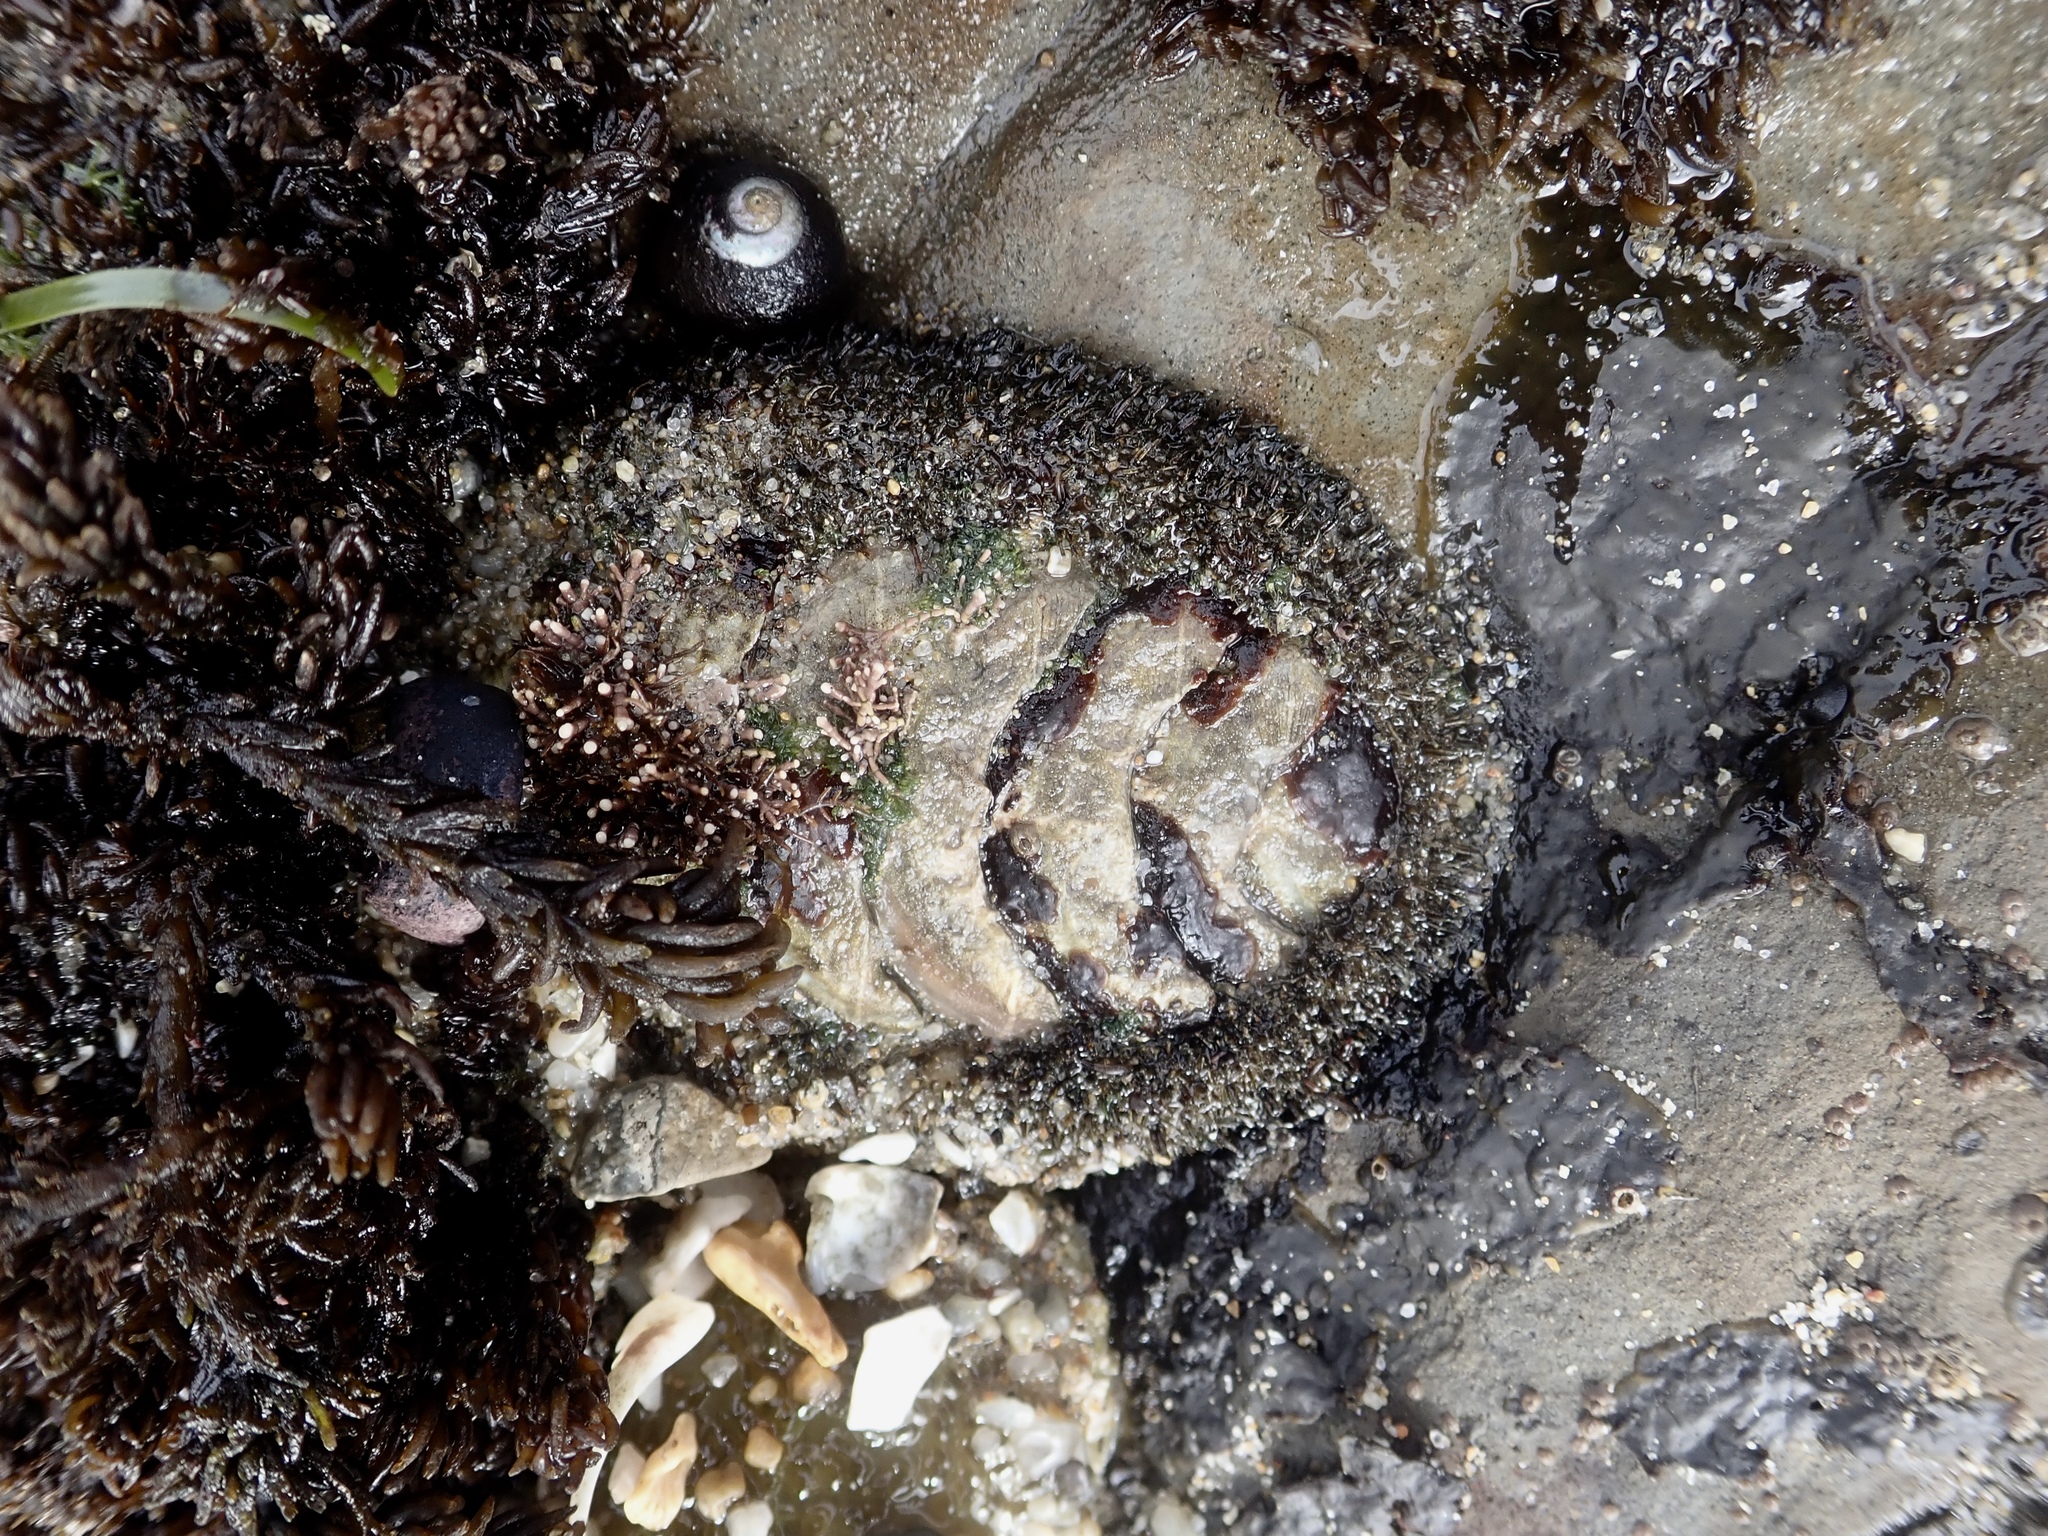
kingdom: Animalia
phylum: Mollusca
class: Polyplacophora
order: Chitonida
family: Mopaliidae
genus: Mopalia
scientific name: Mopalia muscosa
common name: Mossy chiton
